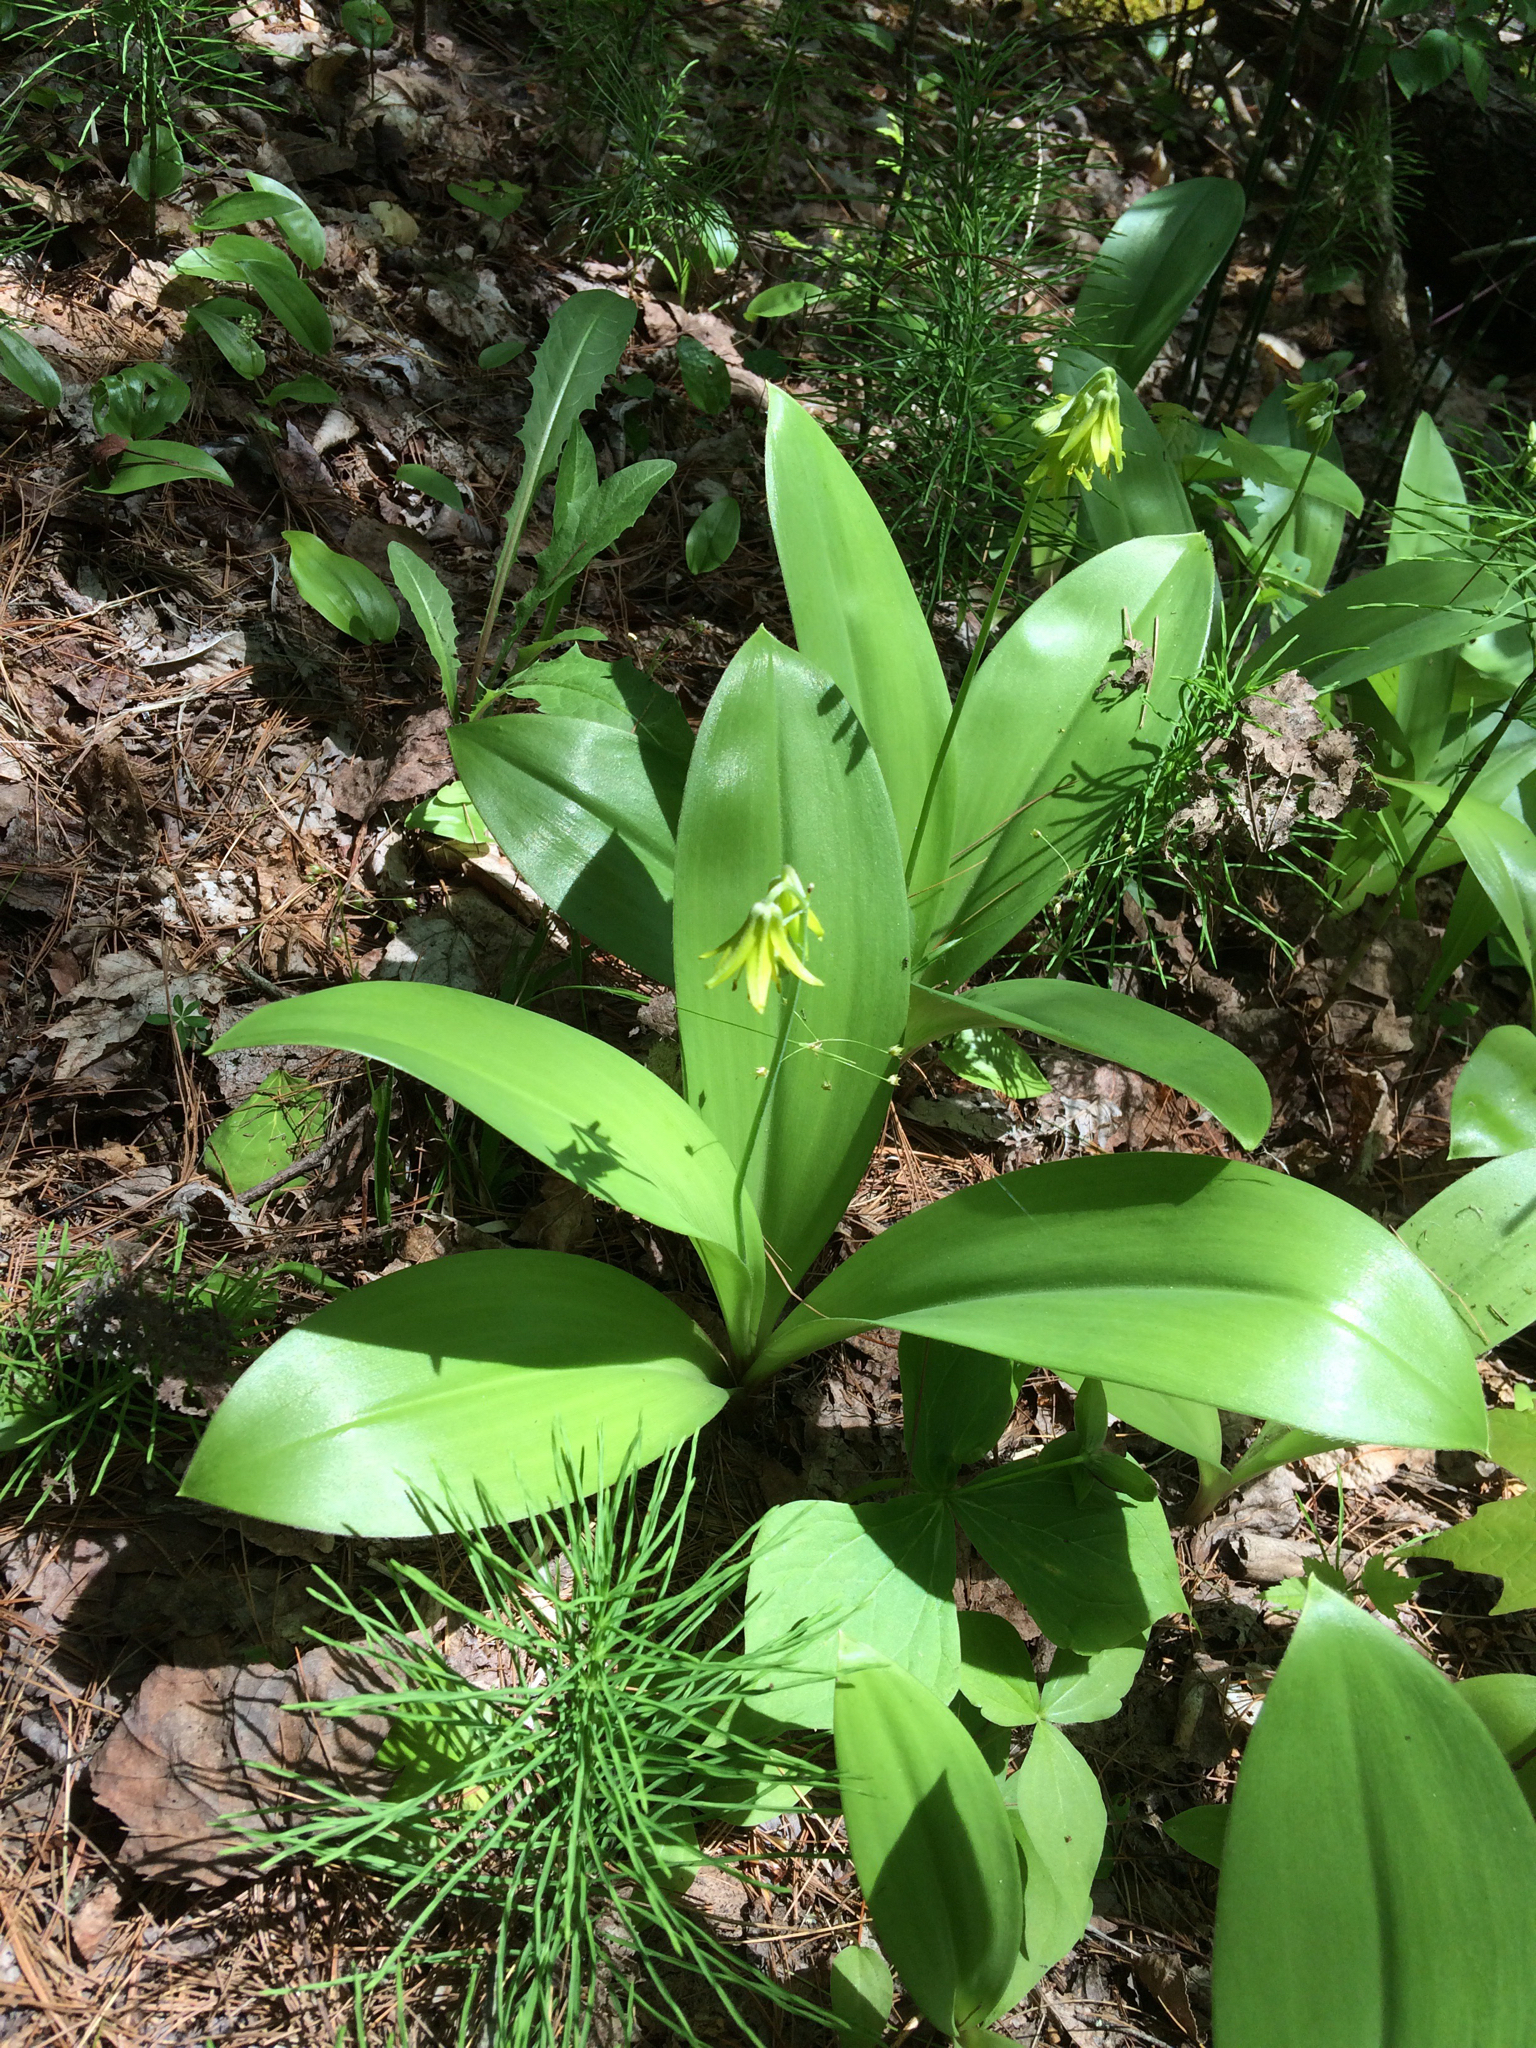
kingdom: Plantae
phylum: Tracheophyta
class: Liliopsida
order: Liliales
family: Liliaceae
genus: Clintonia
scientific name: Clintonia borealis
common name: Yellow clintonia
